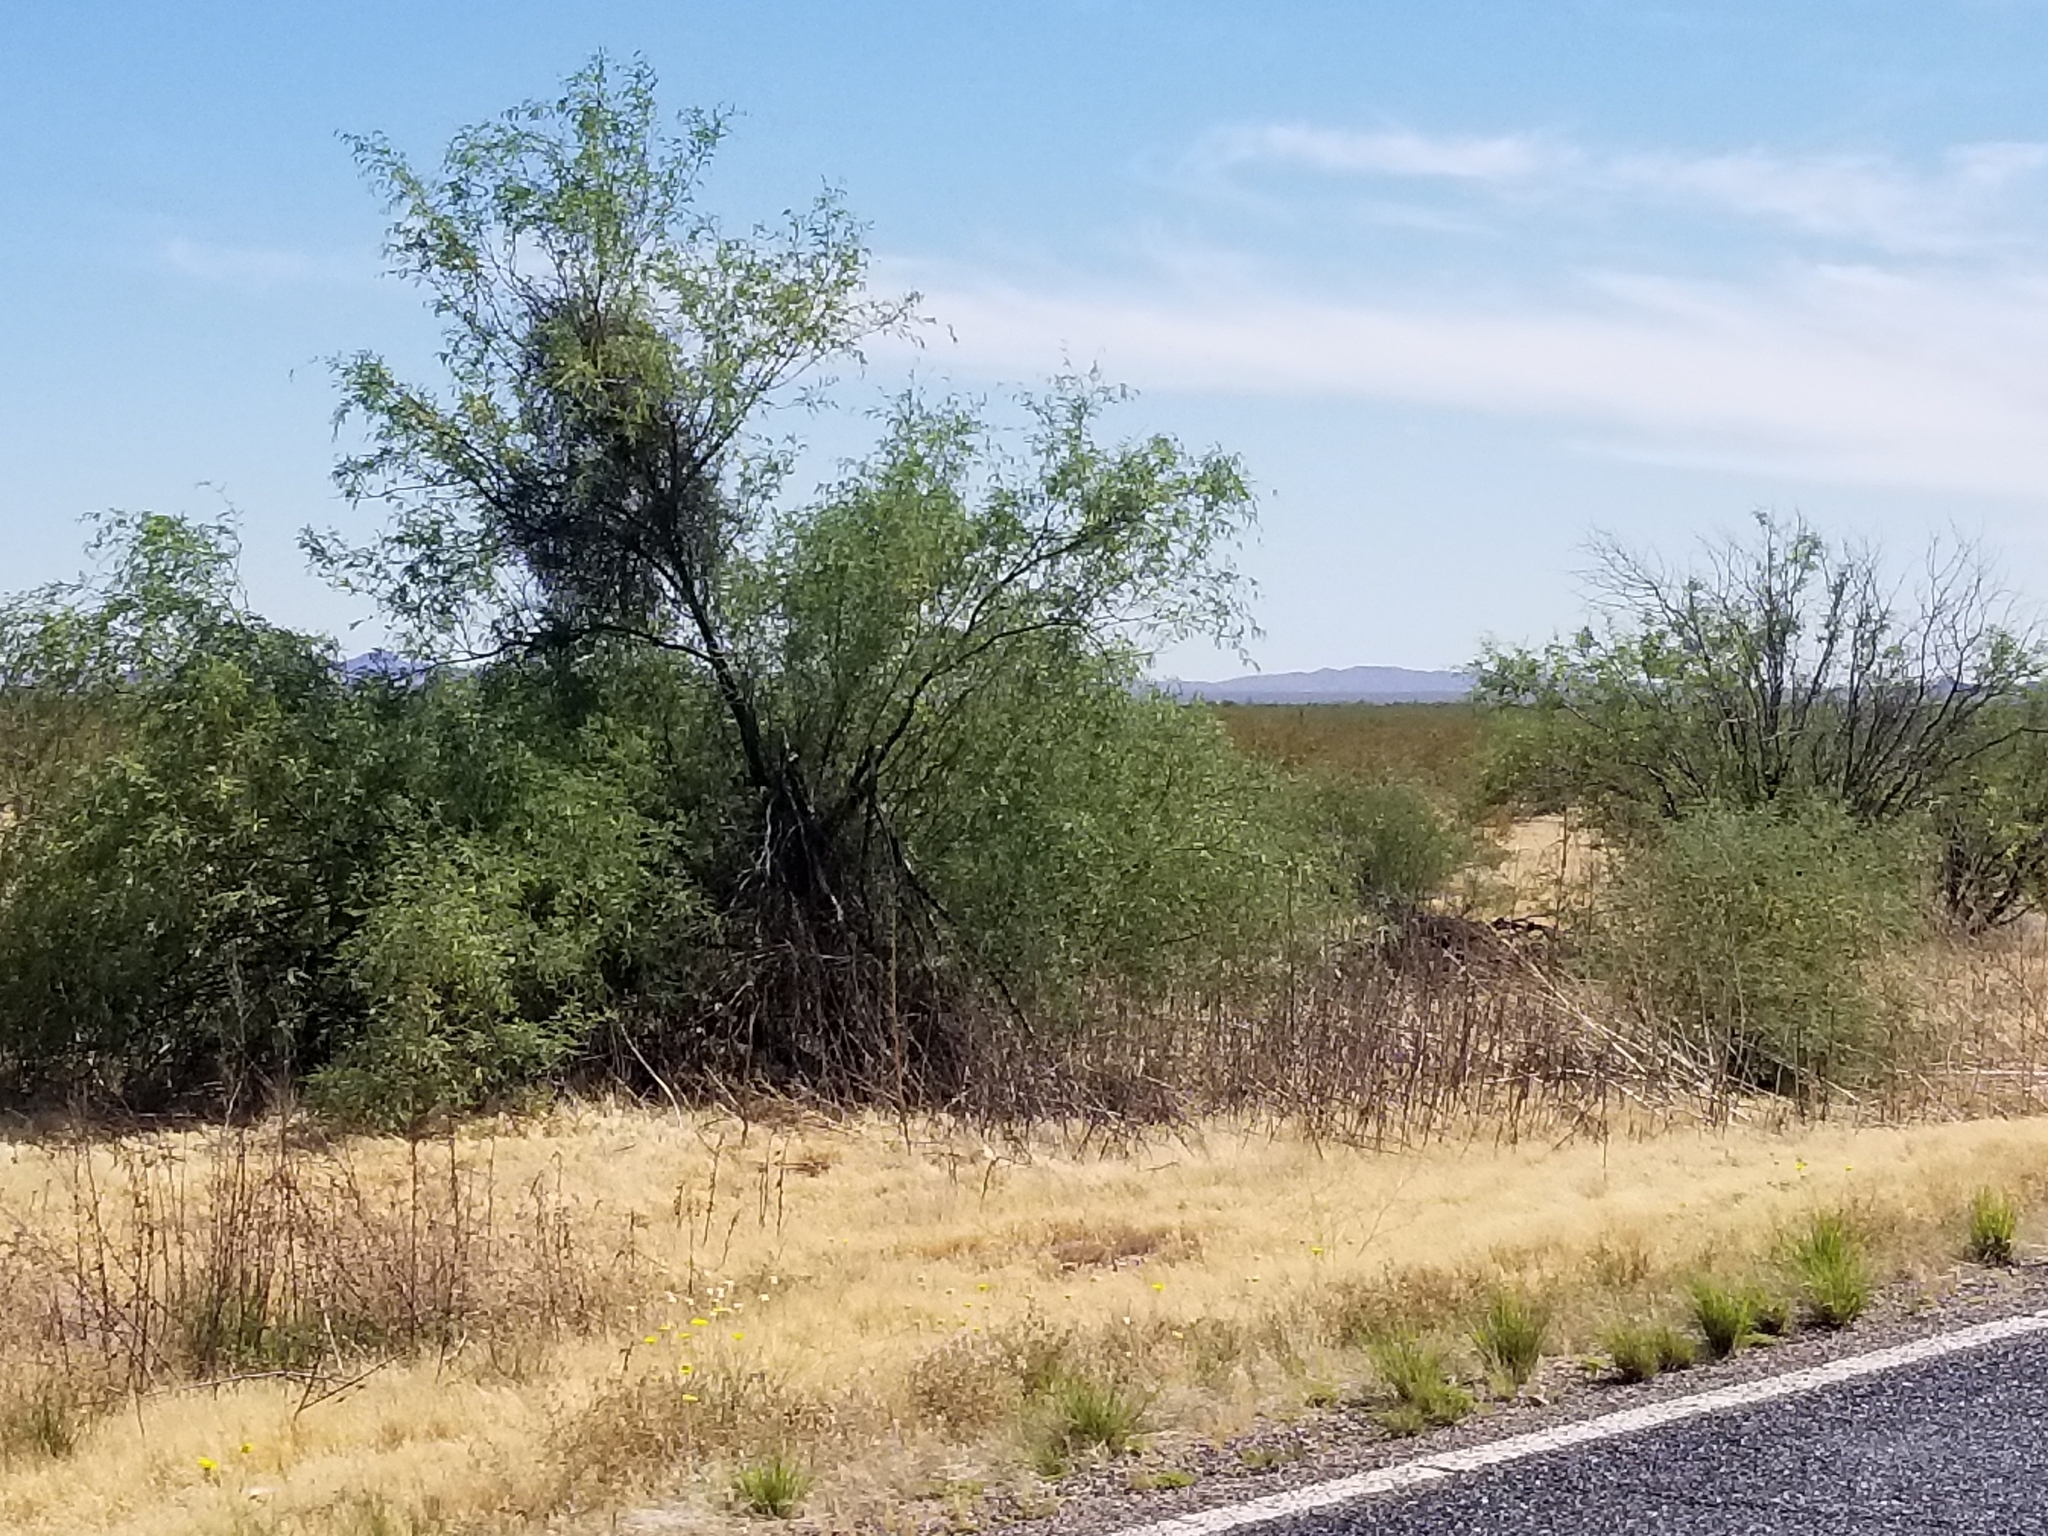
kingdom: Plantae
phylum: Tracheophyta
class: Magnoliopsida
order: Fabales
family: Fabaceae
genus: Prosopis
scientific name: Prosopis pubescens
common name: Screw-bean
